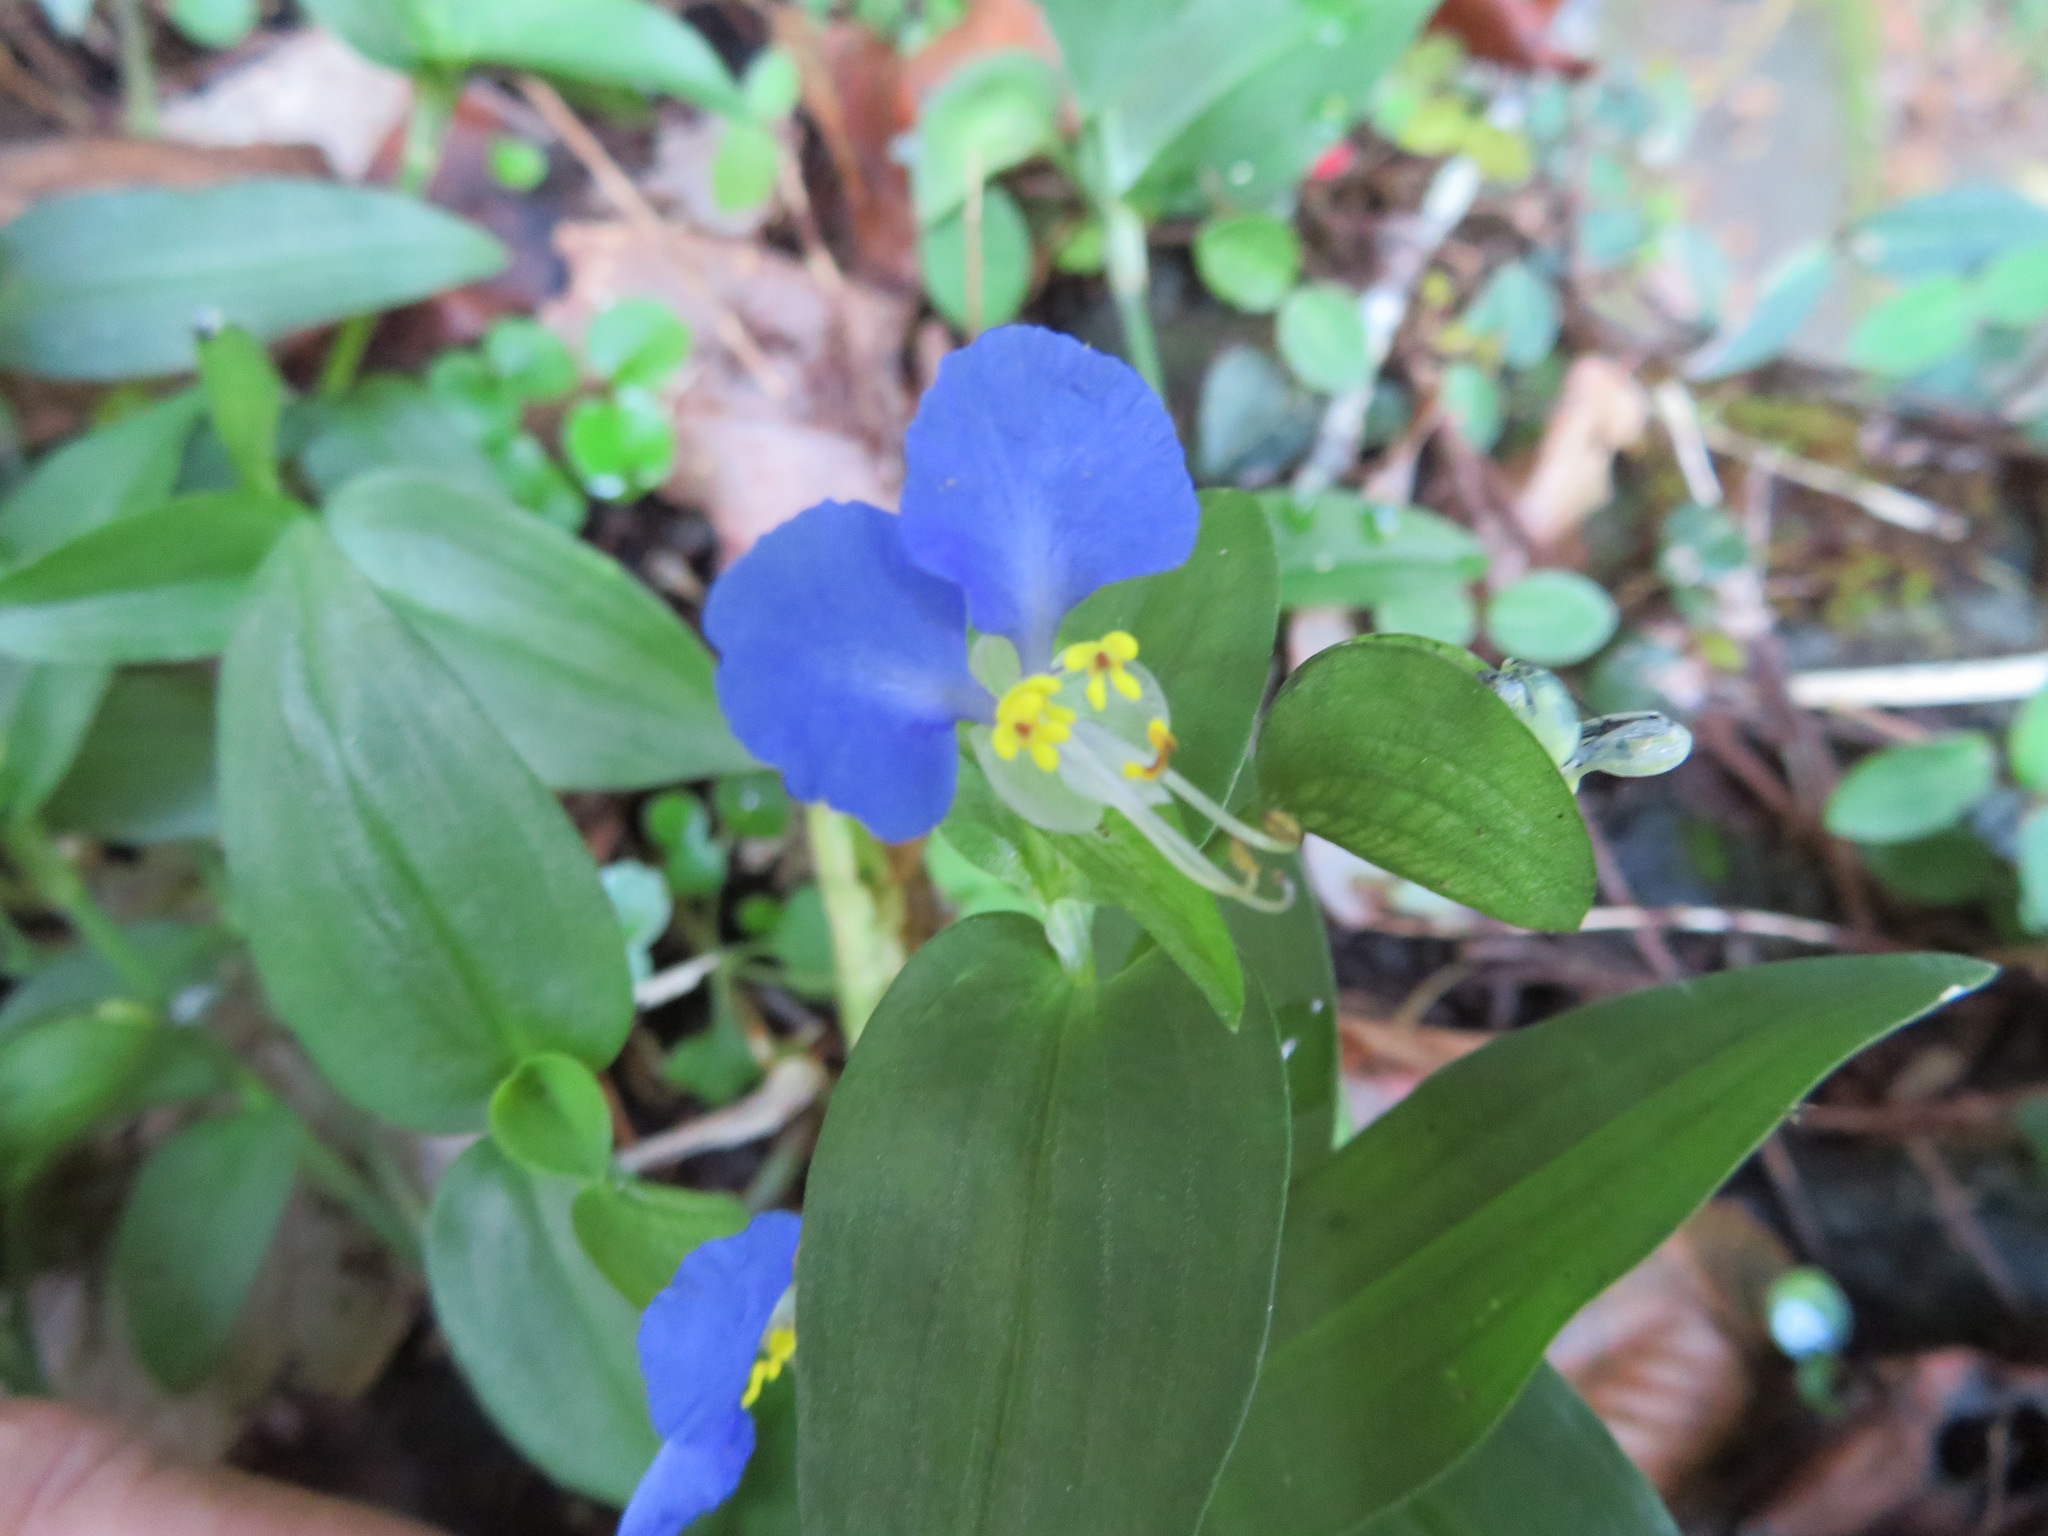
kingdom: Plantae
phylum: Tracheophyta
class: Liliopsida
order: Commelinales
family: Commelinaceae
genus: Commelina
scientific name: Commelina communis
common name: Asiatic dayflower
